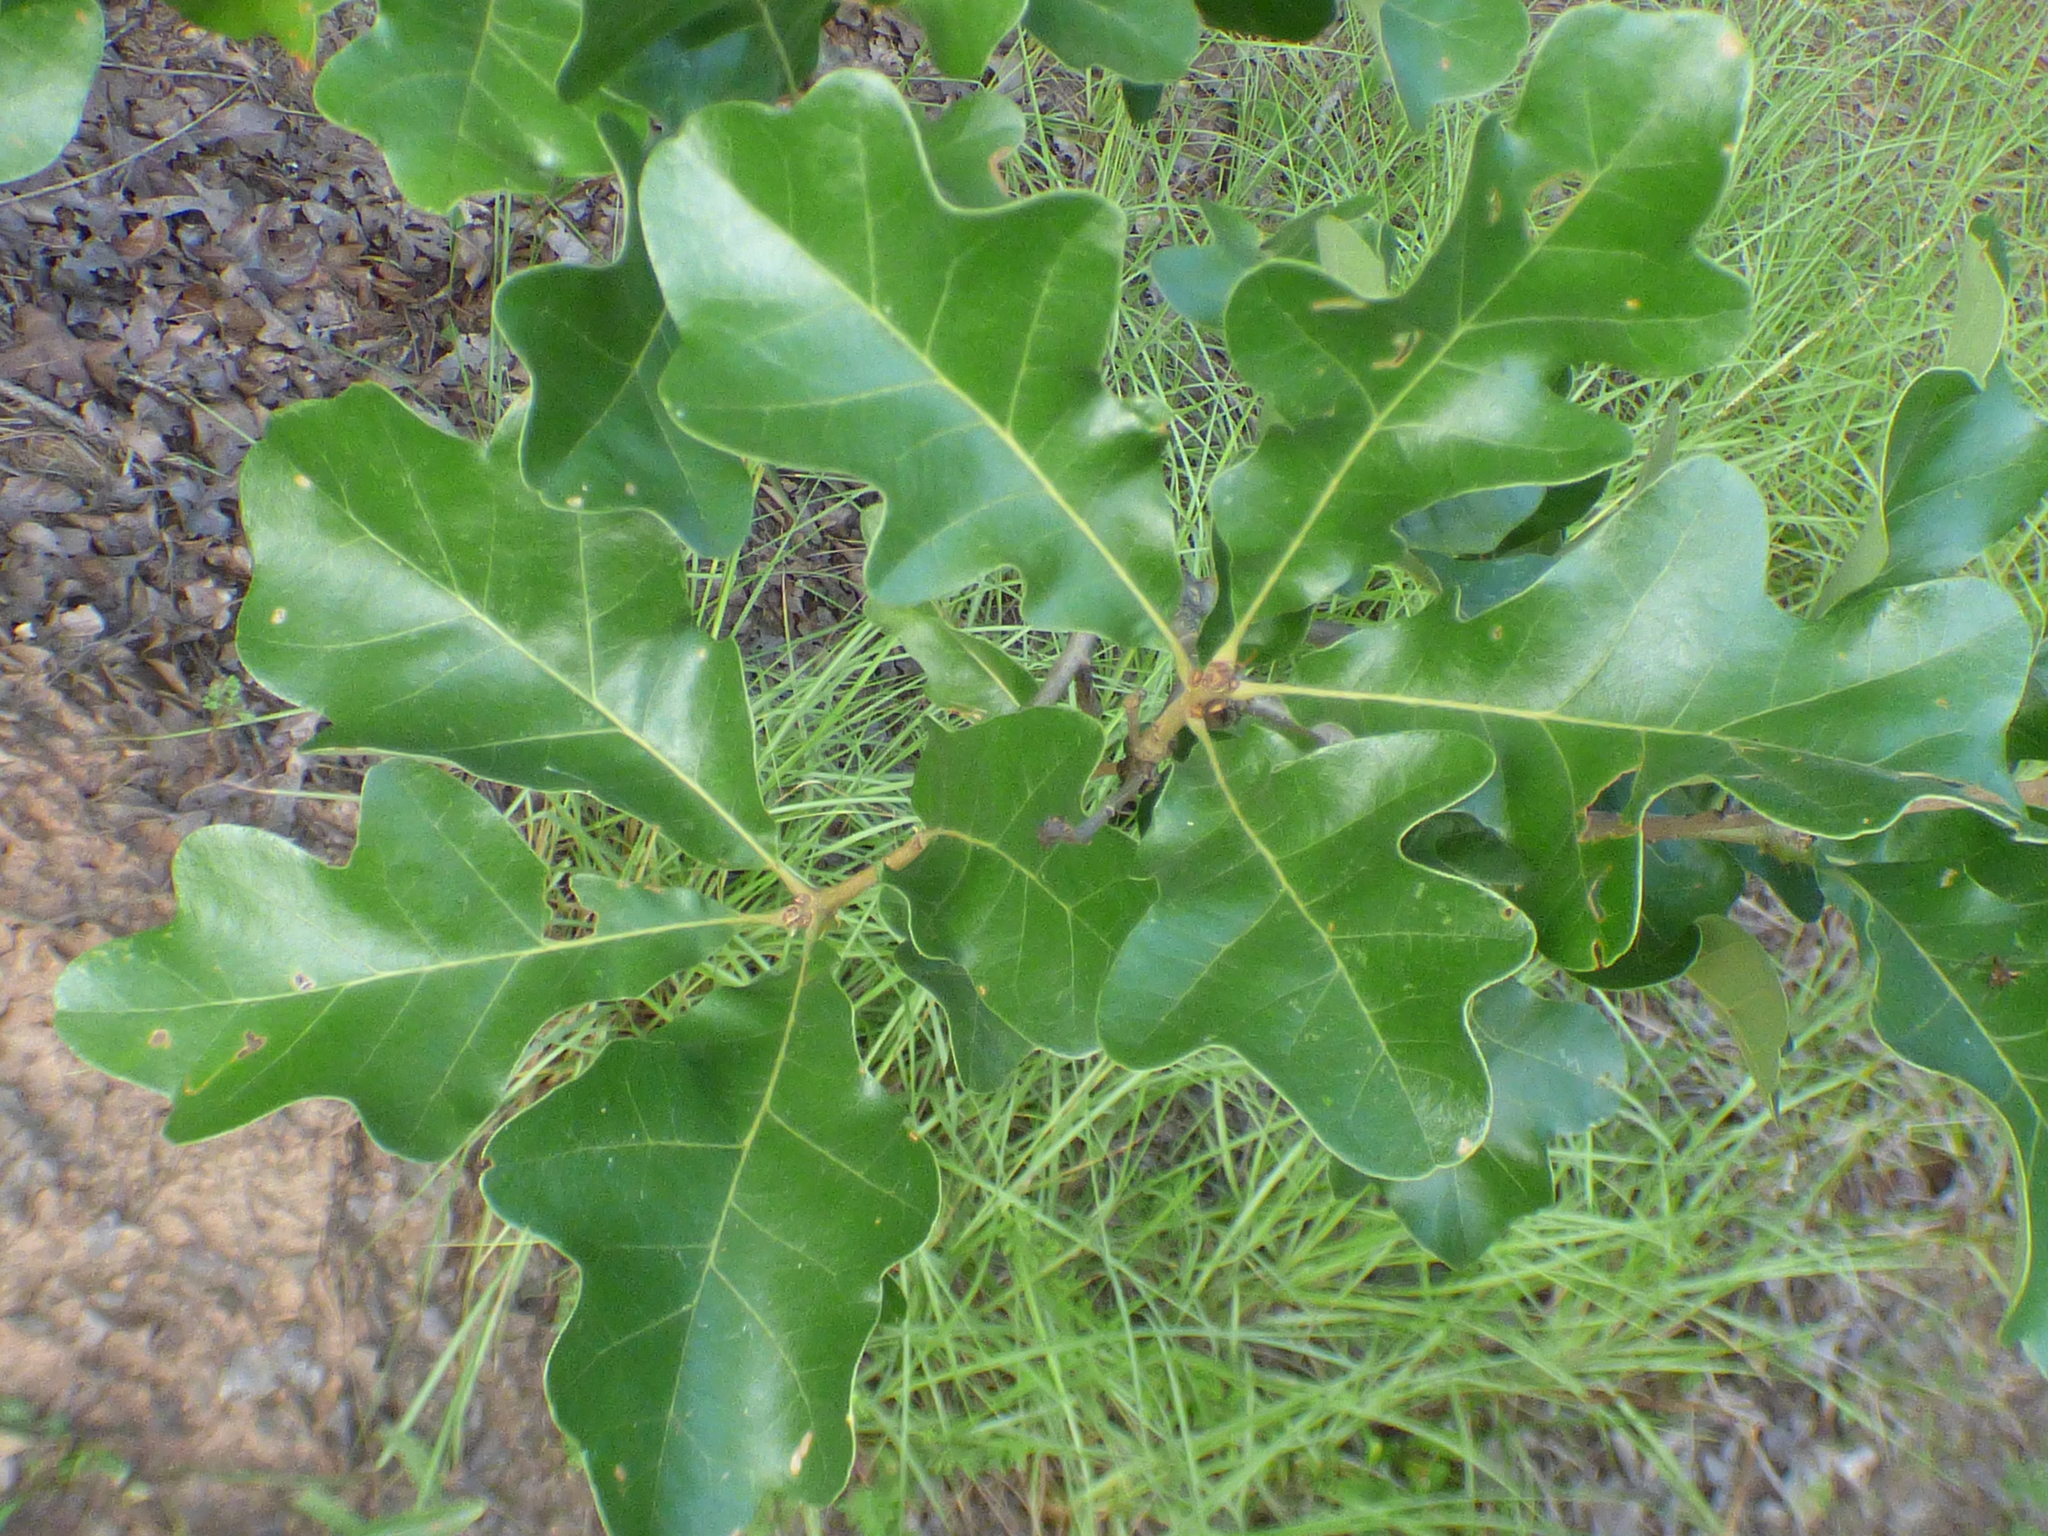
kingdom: Plantae
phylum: Tracheophyta
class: Magnoliopsida
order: Fagales
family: Fagaceae
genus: Quercus
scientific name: Quercus margaretiae
